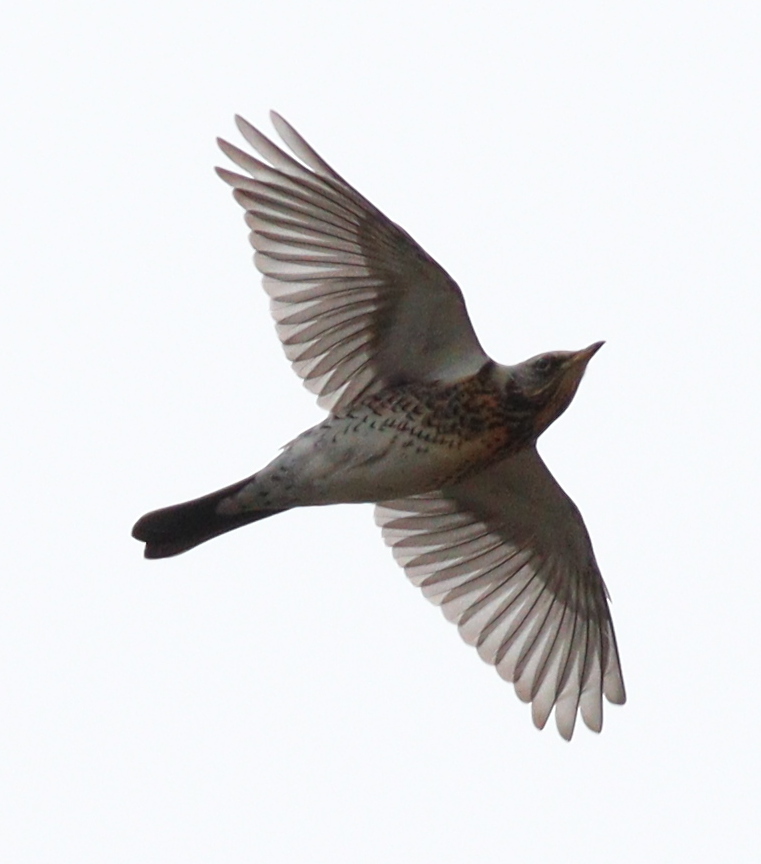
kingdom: Animalia
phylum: Chordata
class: Aves
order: Passeriformes
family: Turdidae
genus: Turdus
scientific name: Turdus pilaris
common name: Fieldfare
